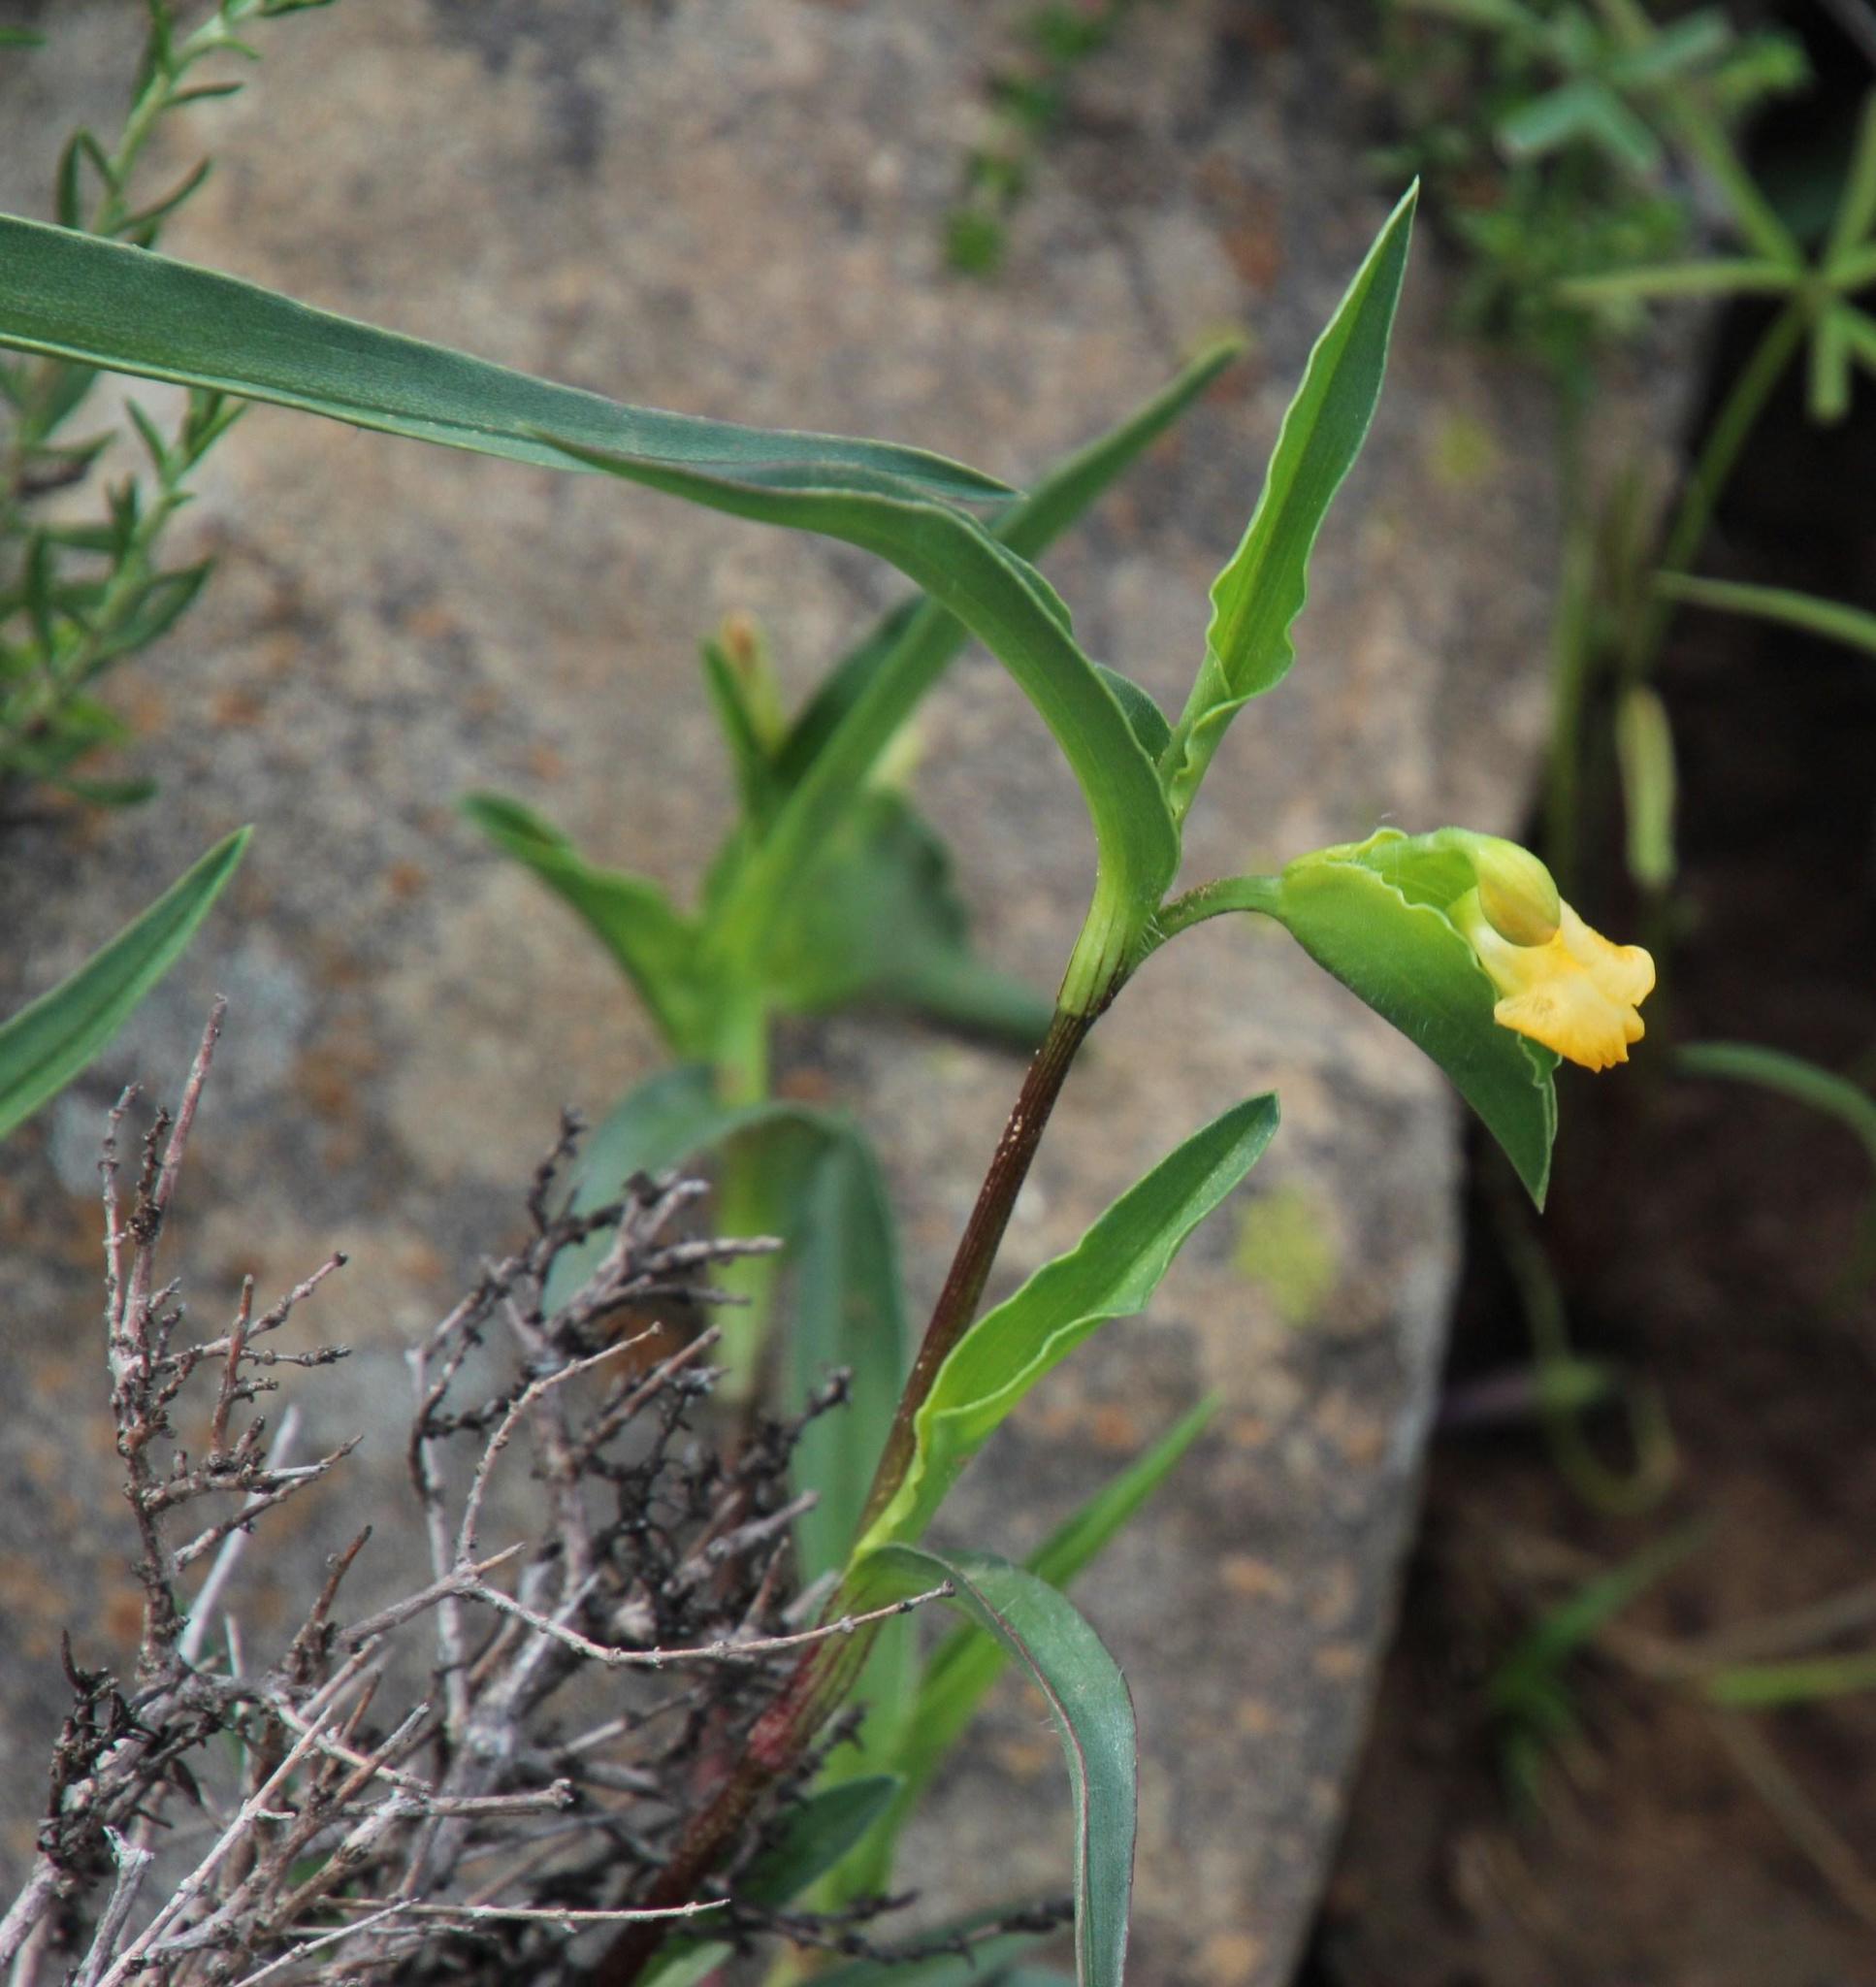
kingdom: Plantae
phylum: Tracheophyta
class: Liliopsida
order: Commelinales
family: Commelinaceae
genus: Commelina
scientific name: Commelina africana
